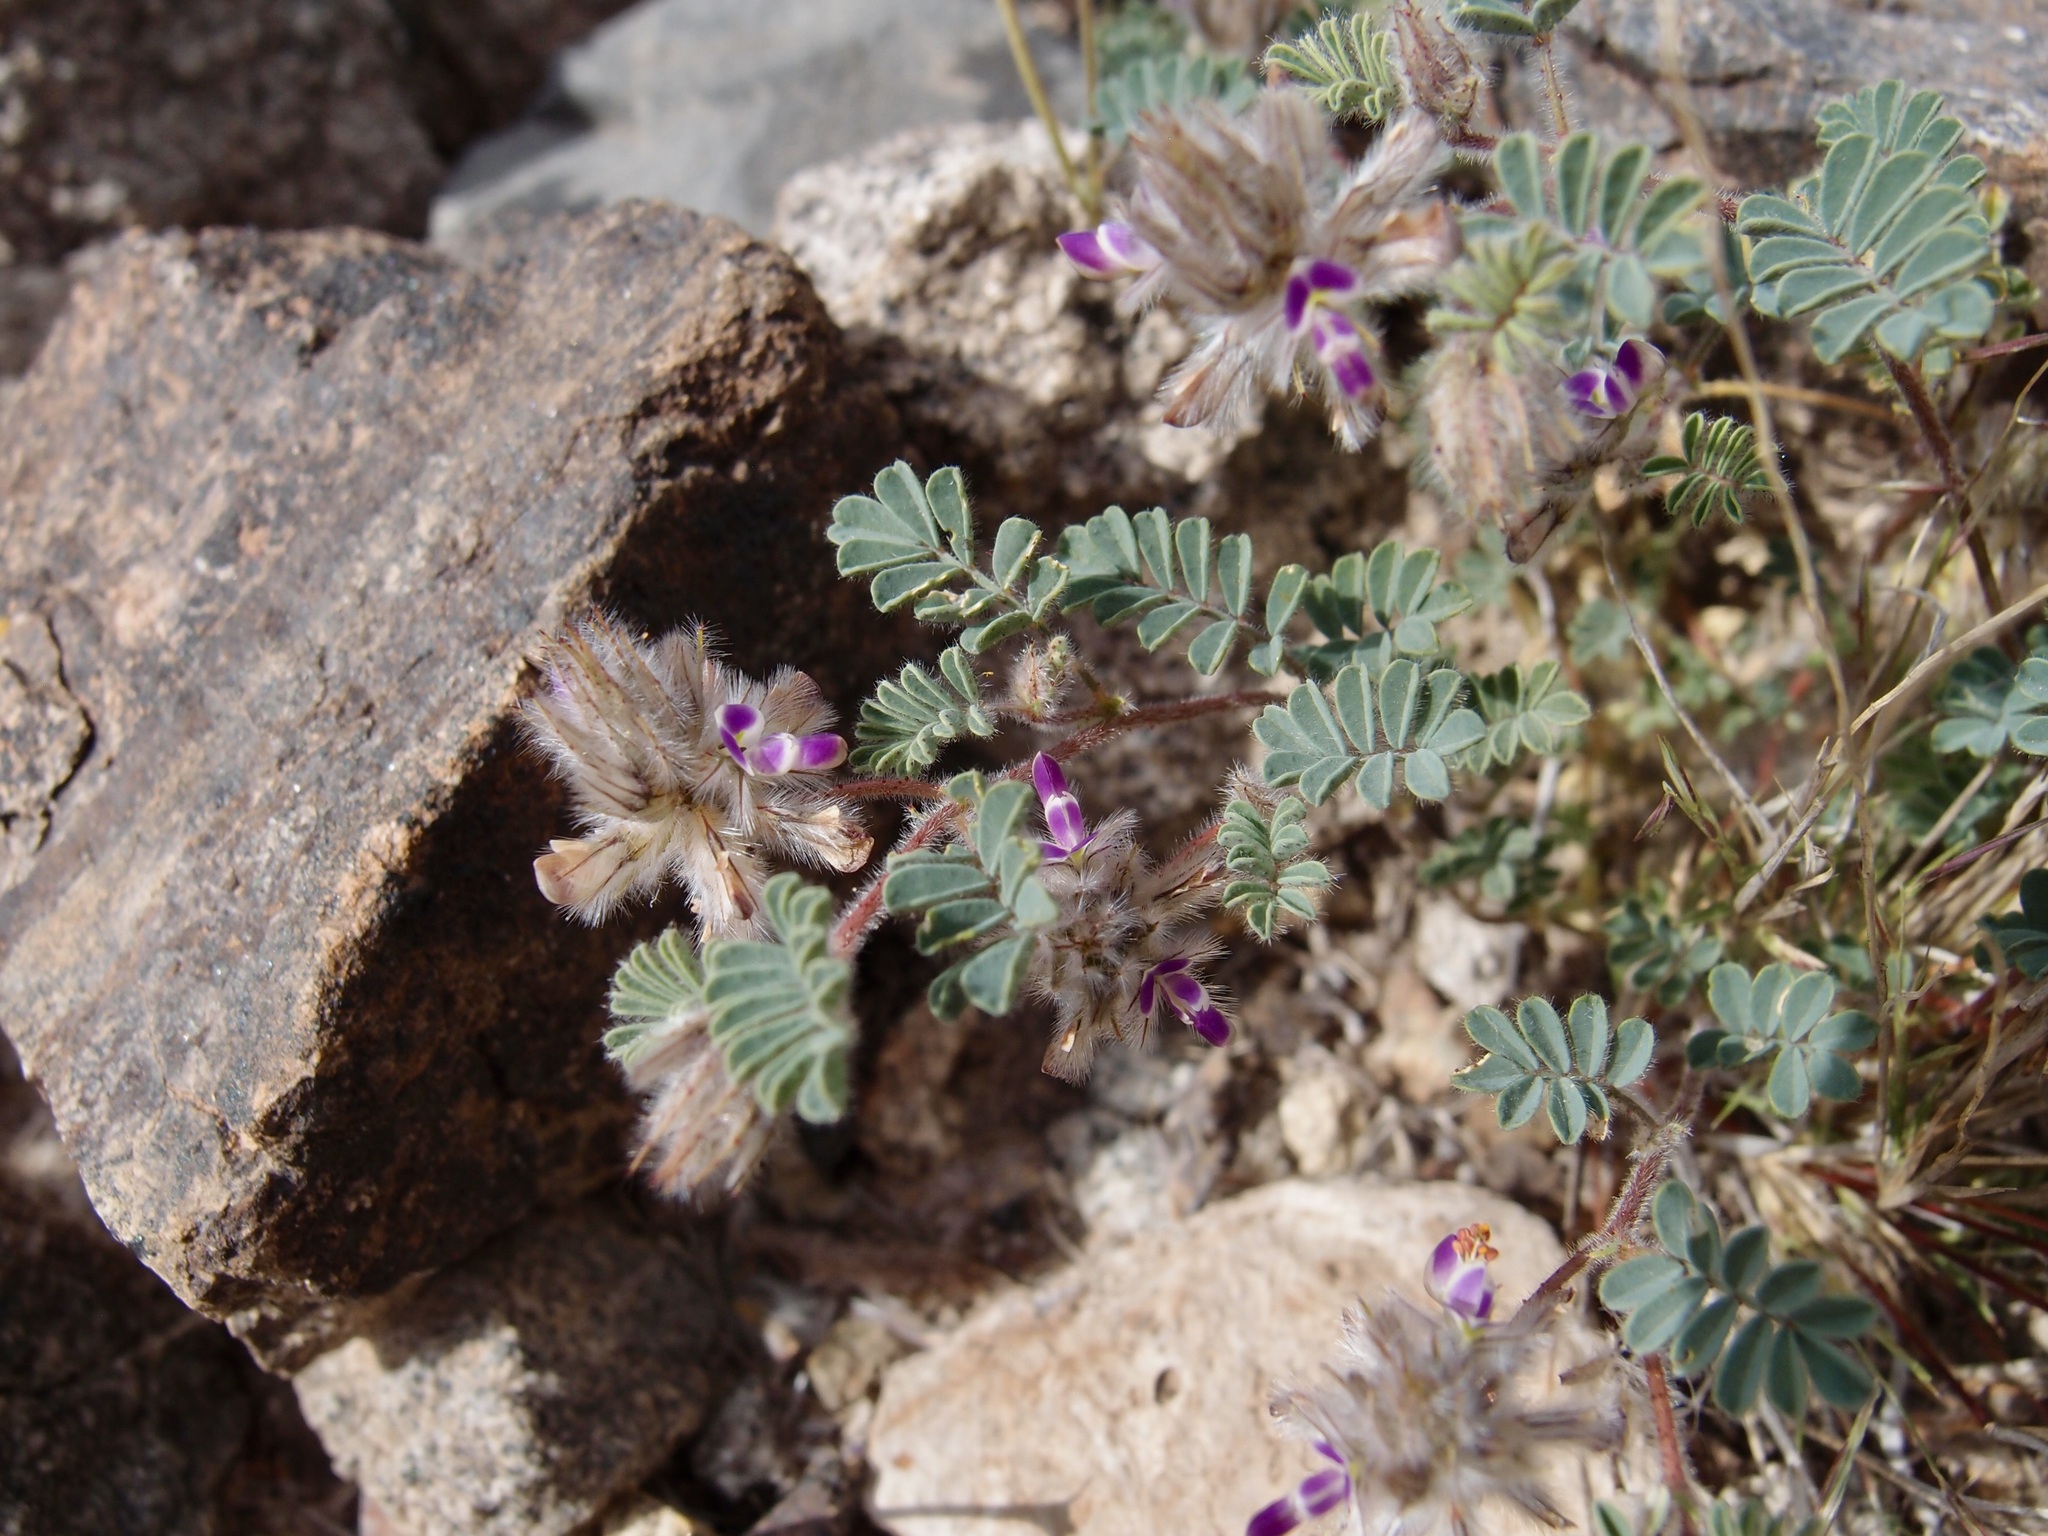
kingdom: Plantae
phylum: Tracheophyta
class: Magnoliopsida
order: Fabales
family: Fabaceae
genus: Dalea
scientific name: Dalea mollis
